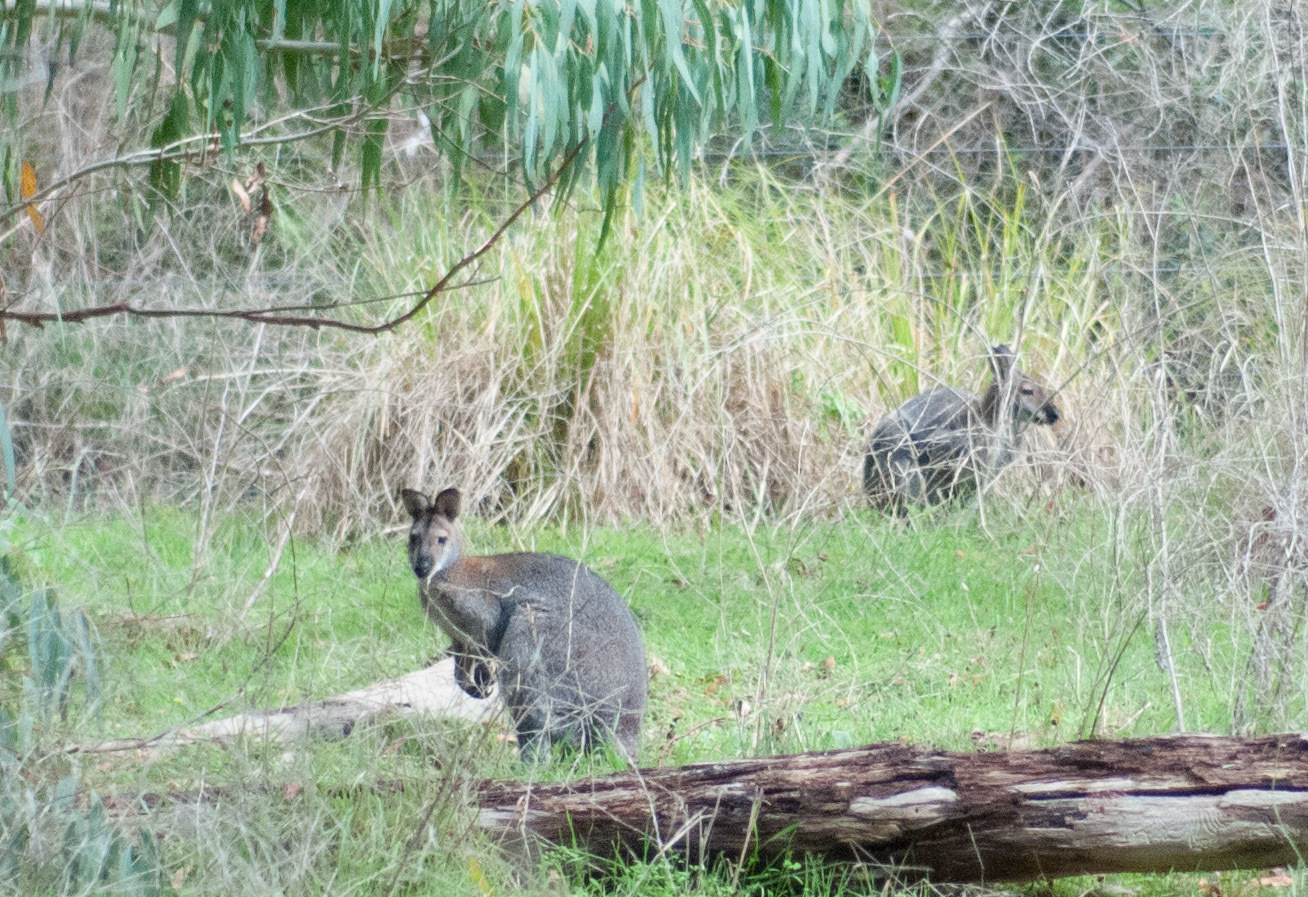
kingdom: Animalia
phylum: Chordata
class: Mammalia
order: Diprotodontia
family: Macropodidae
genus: Notamacropus
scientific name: Notamacropus rufogriseus
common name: Red-necked wallaby
